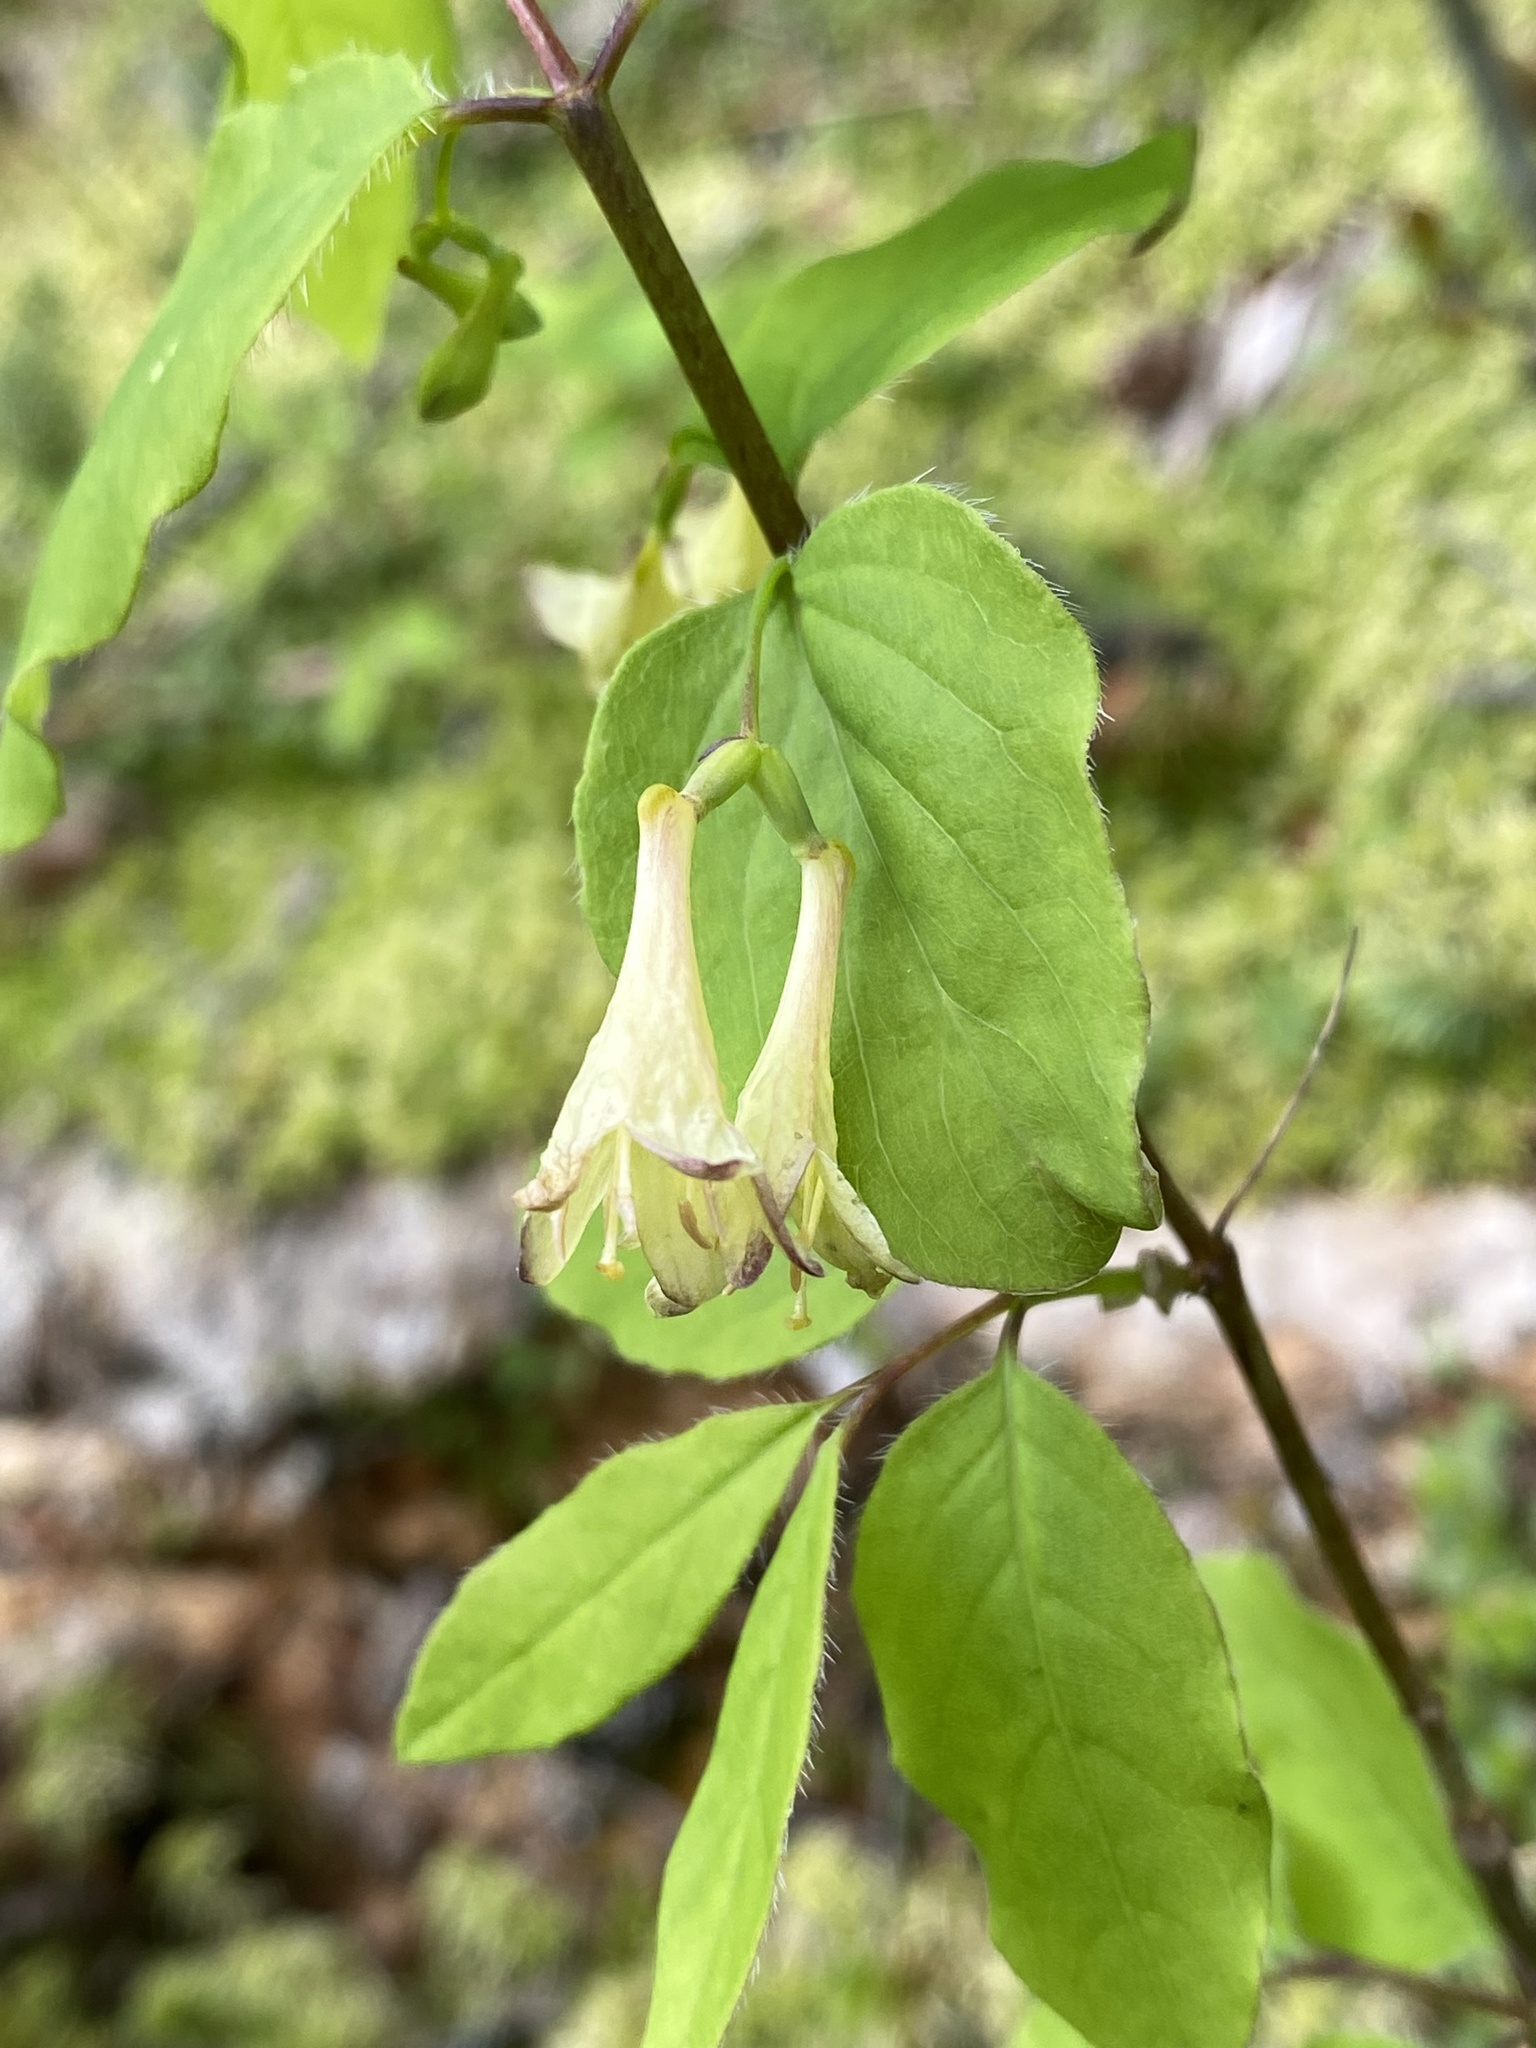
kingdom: Plantae
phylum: Tracheophyta
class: Magnoliopsida
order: Dipsacales
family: Caprifoliaceae
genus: Lonicera
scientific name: Lonicera canadensis
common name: American fly-honeysuckle
